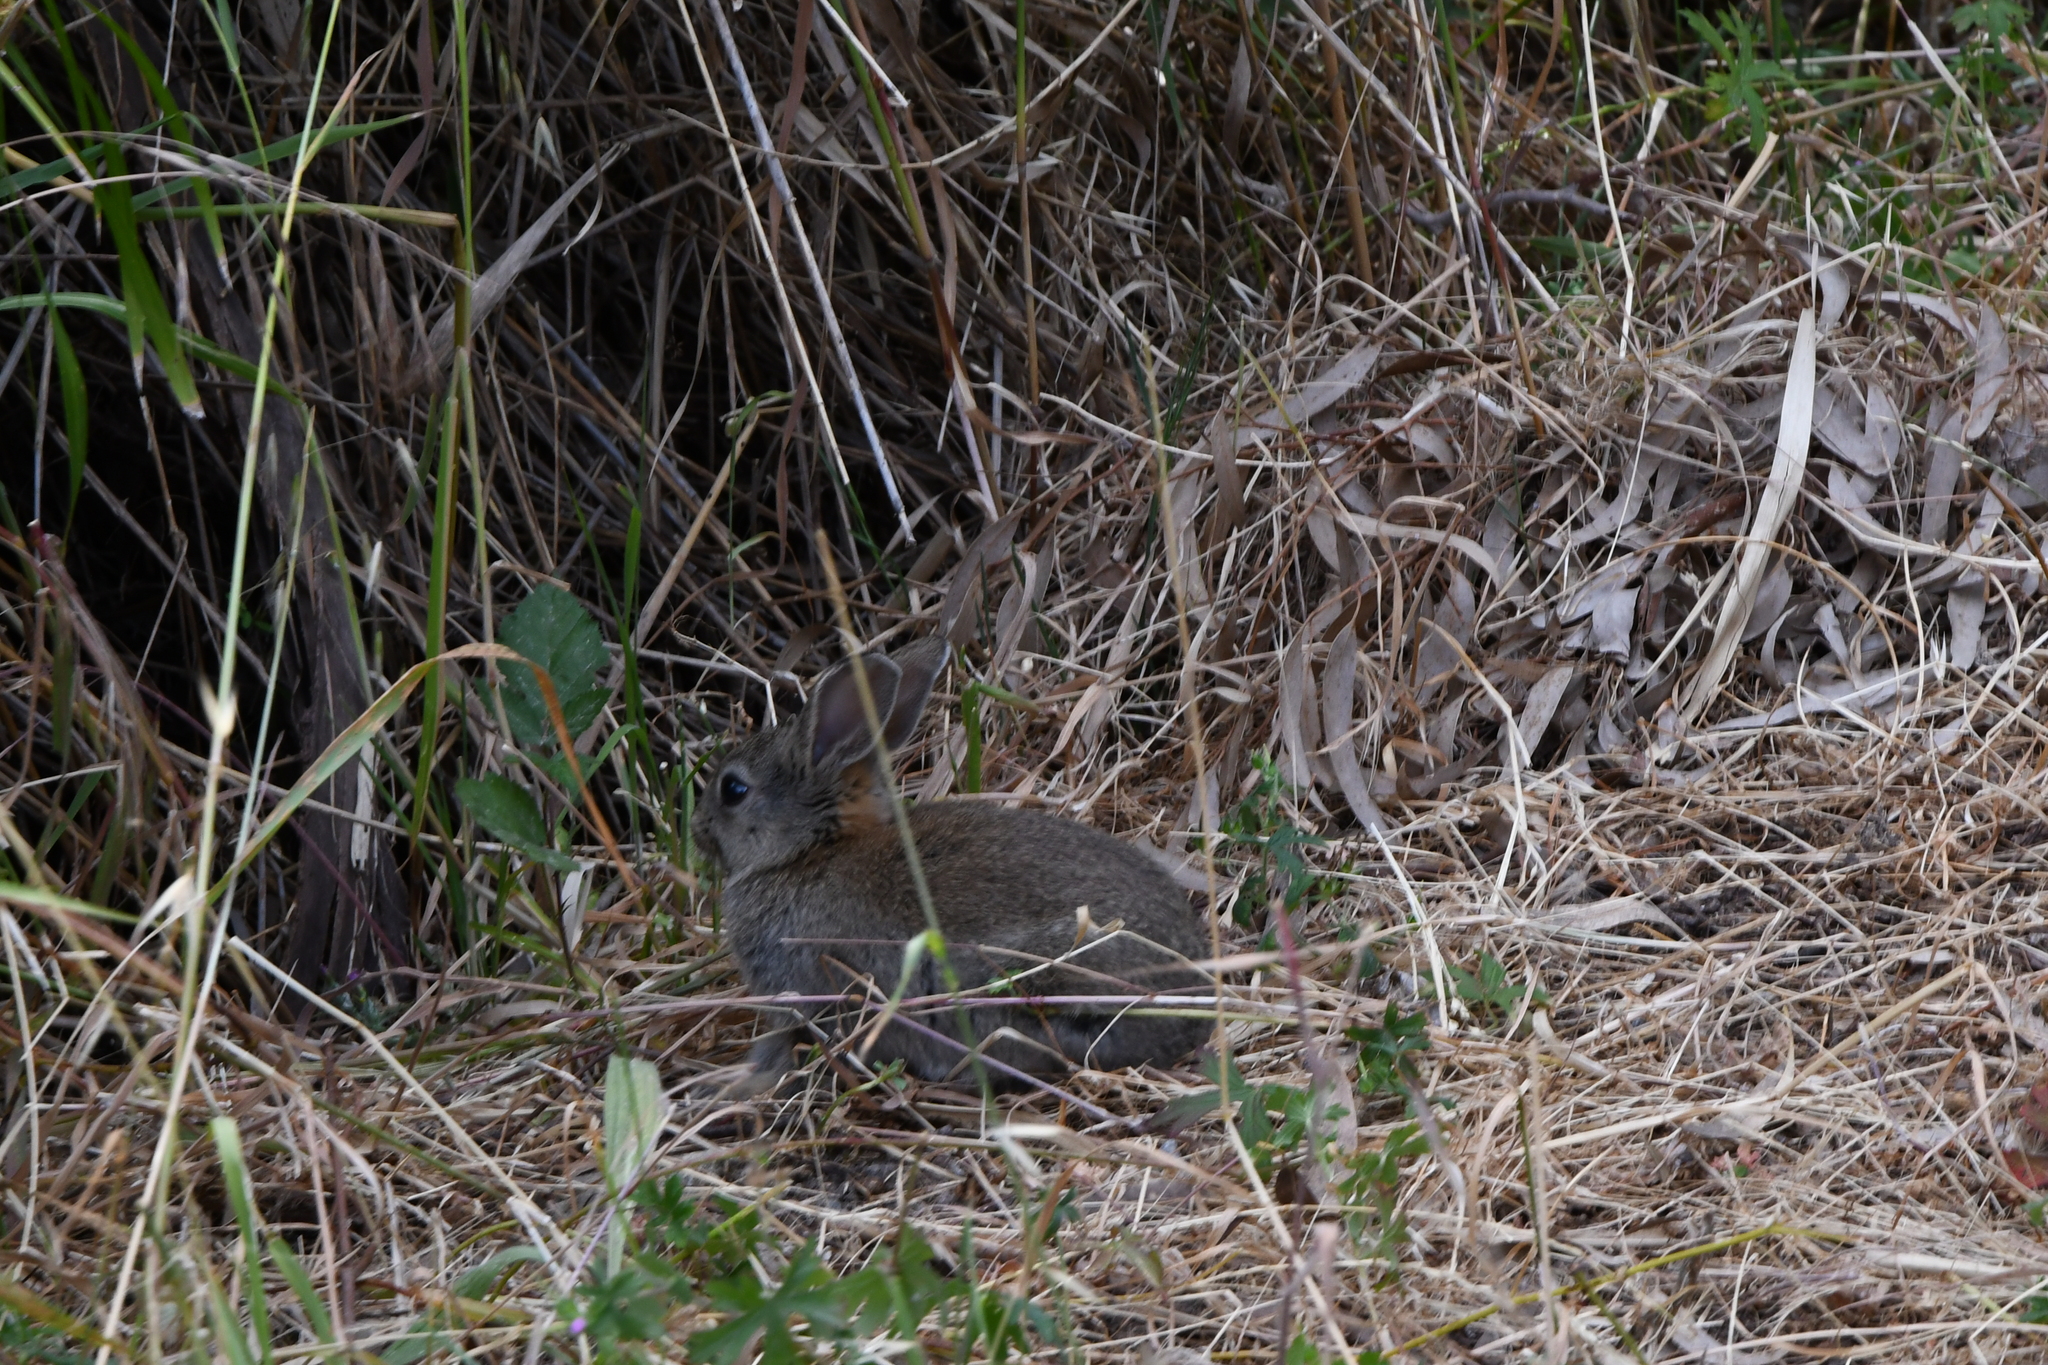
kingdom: Animalia
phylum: Chordata
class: Mammalia
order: Lagomorpha
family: Leporidae
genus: Oryctolagus
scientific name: Oryctolagus cuniculus
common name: European rabbit
